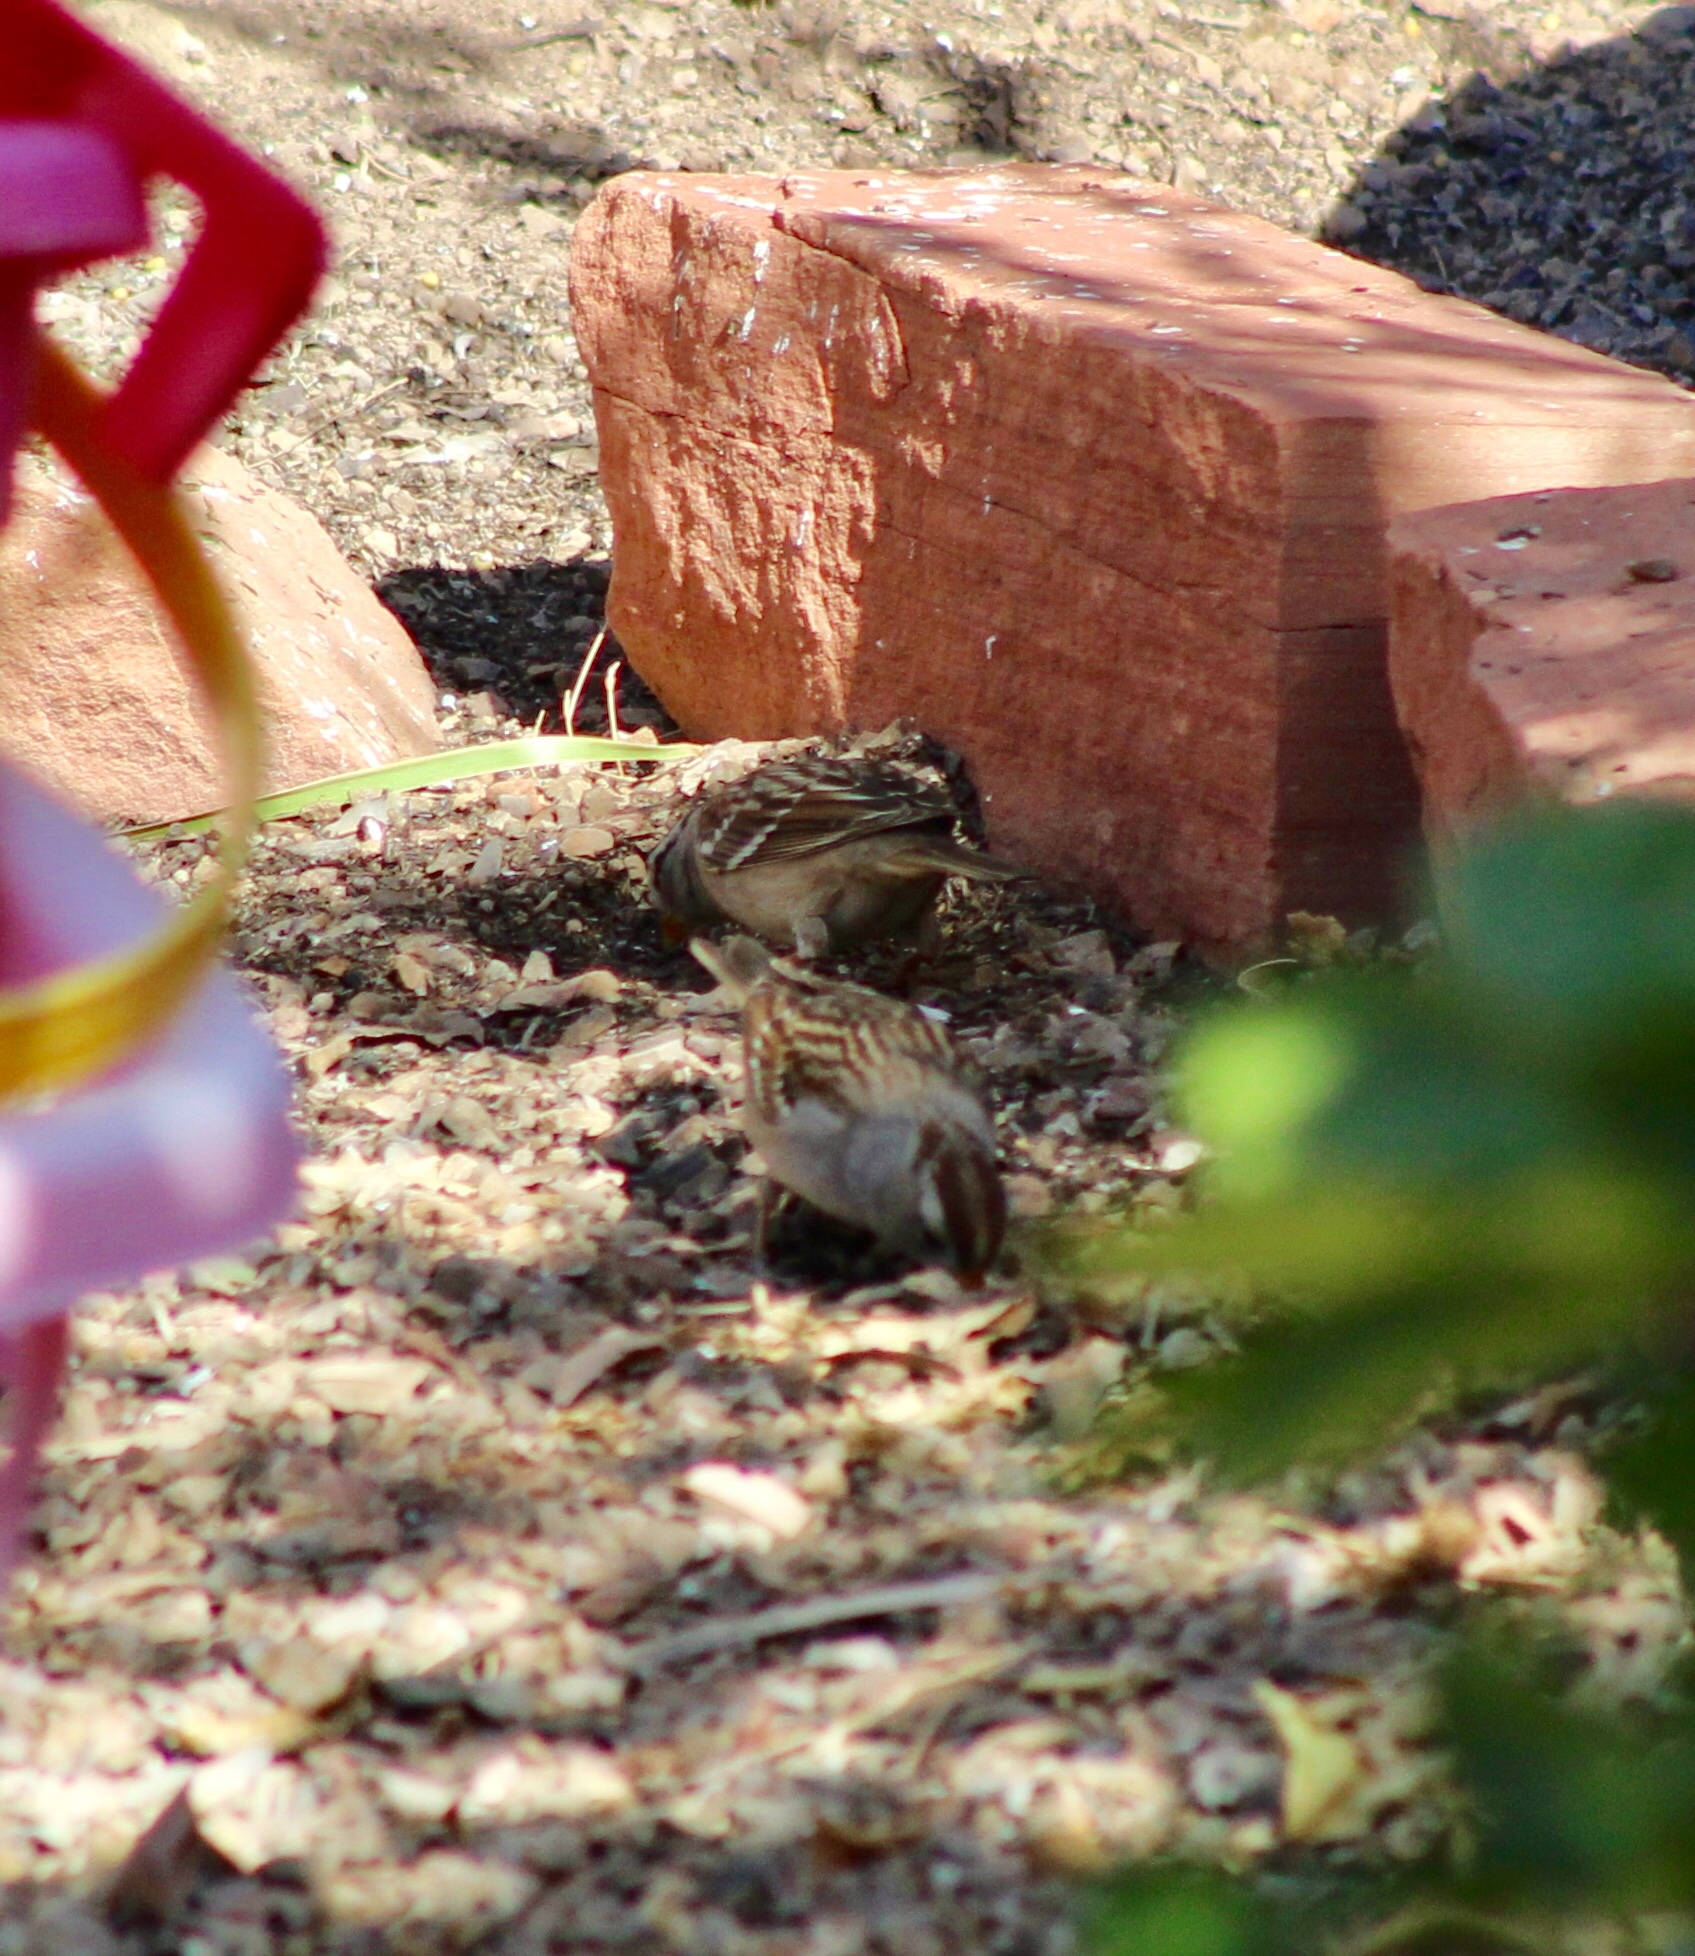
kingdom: Animalia
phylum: Chordata
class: Aves
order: Passeriformes
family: Passerellidae
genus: Zonotrichia
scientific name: Zonotrichia leucophrys
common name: White-crowned sparrow
